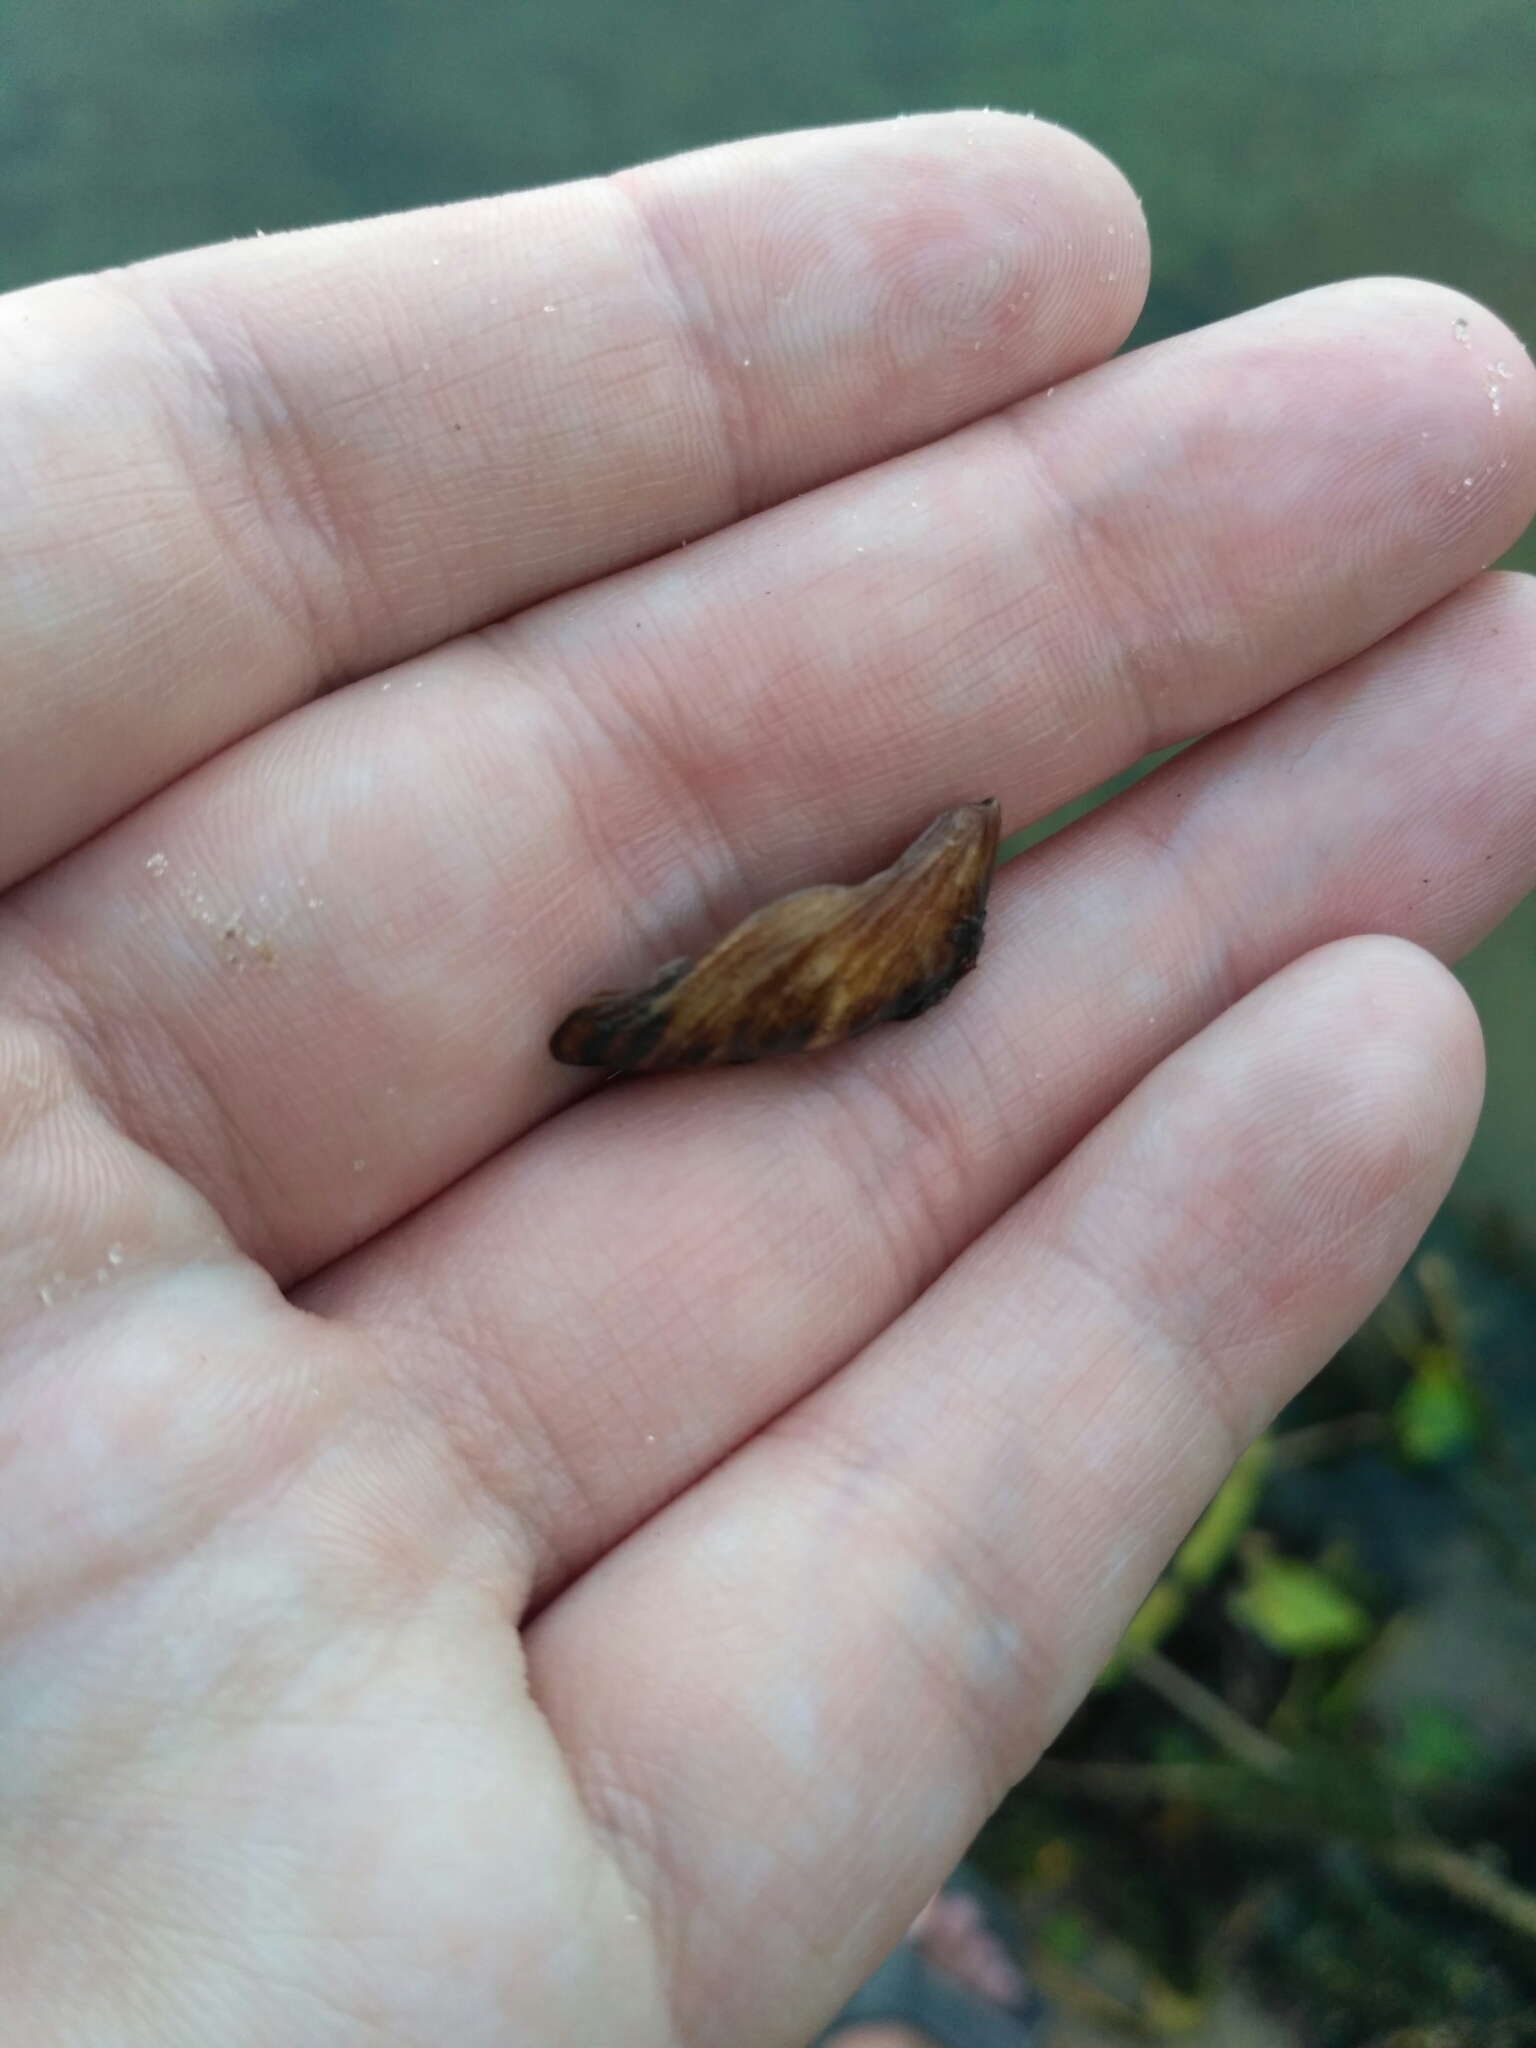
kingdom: Animalia
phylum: Mollusca
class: Bivalvia
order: Myida
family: Dreissenidae
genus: Dreissena
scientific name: Dreissena bugensis
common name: Quagga mussel
